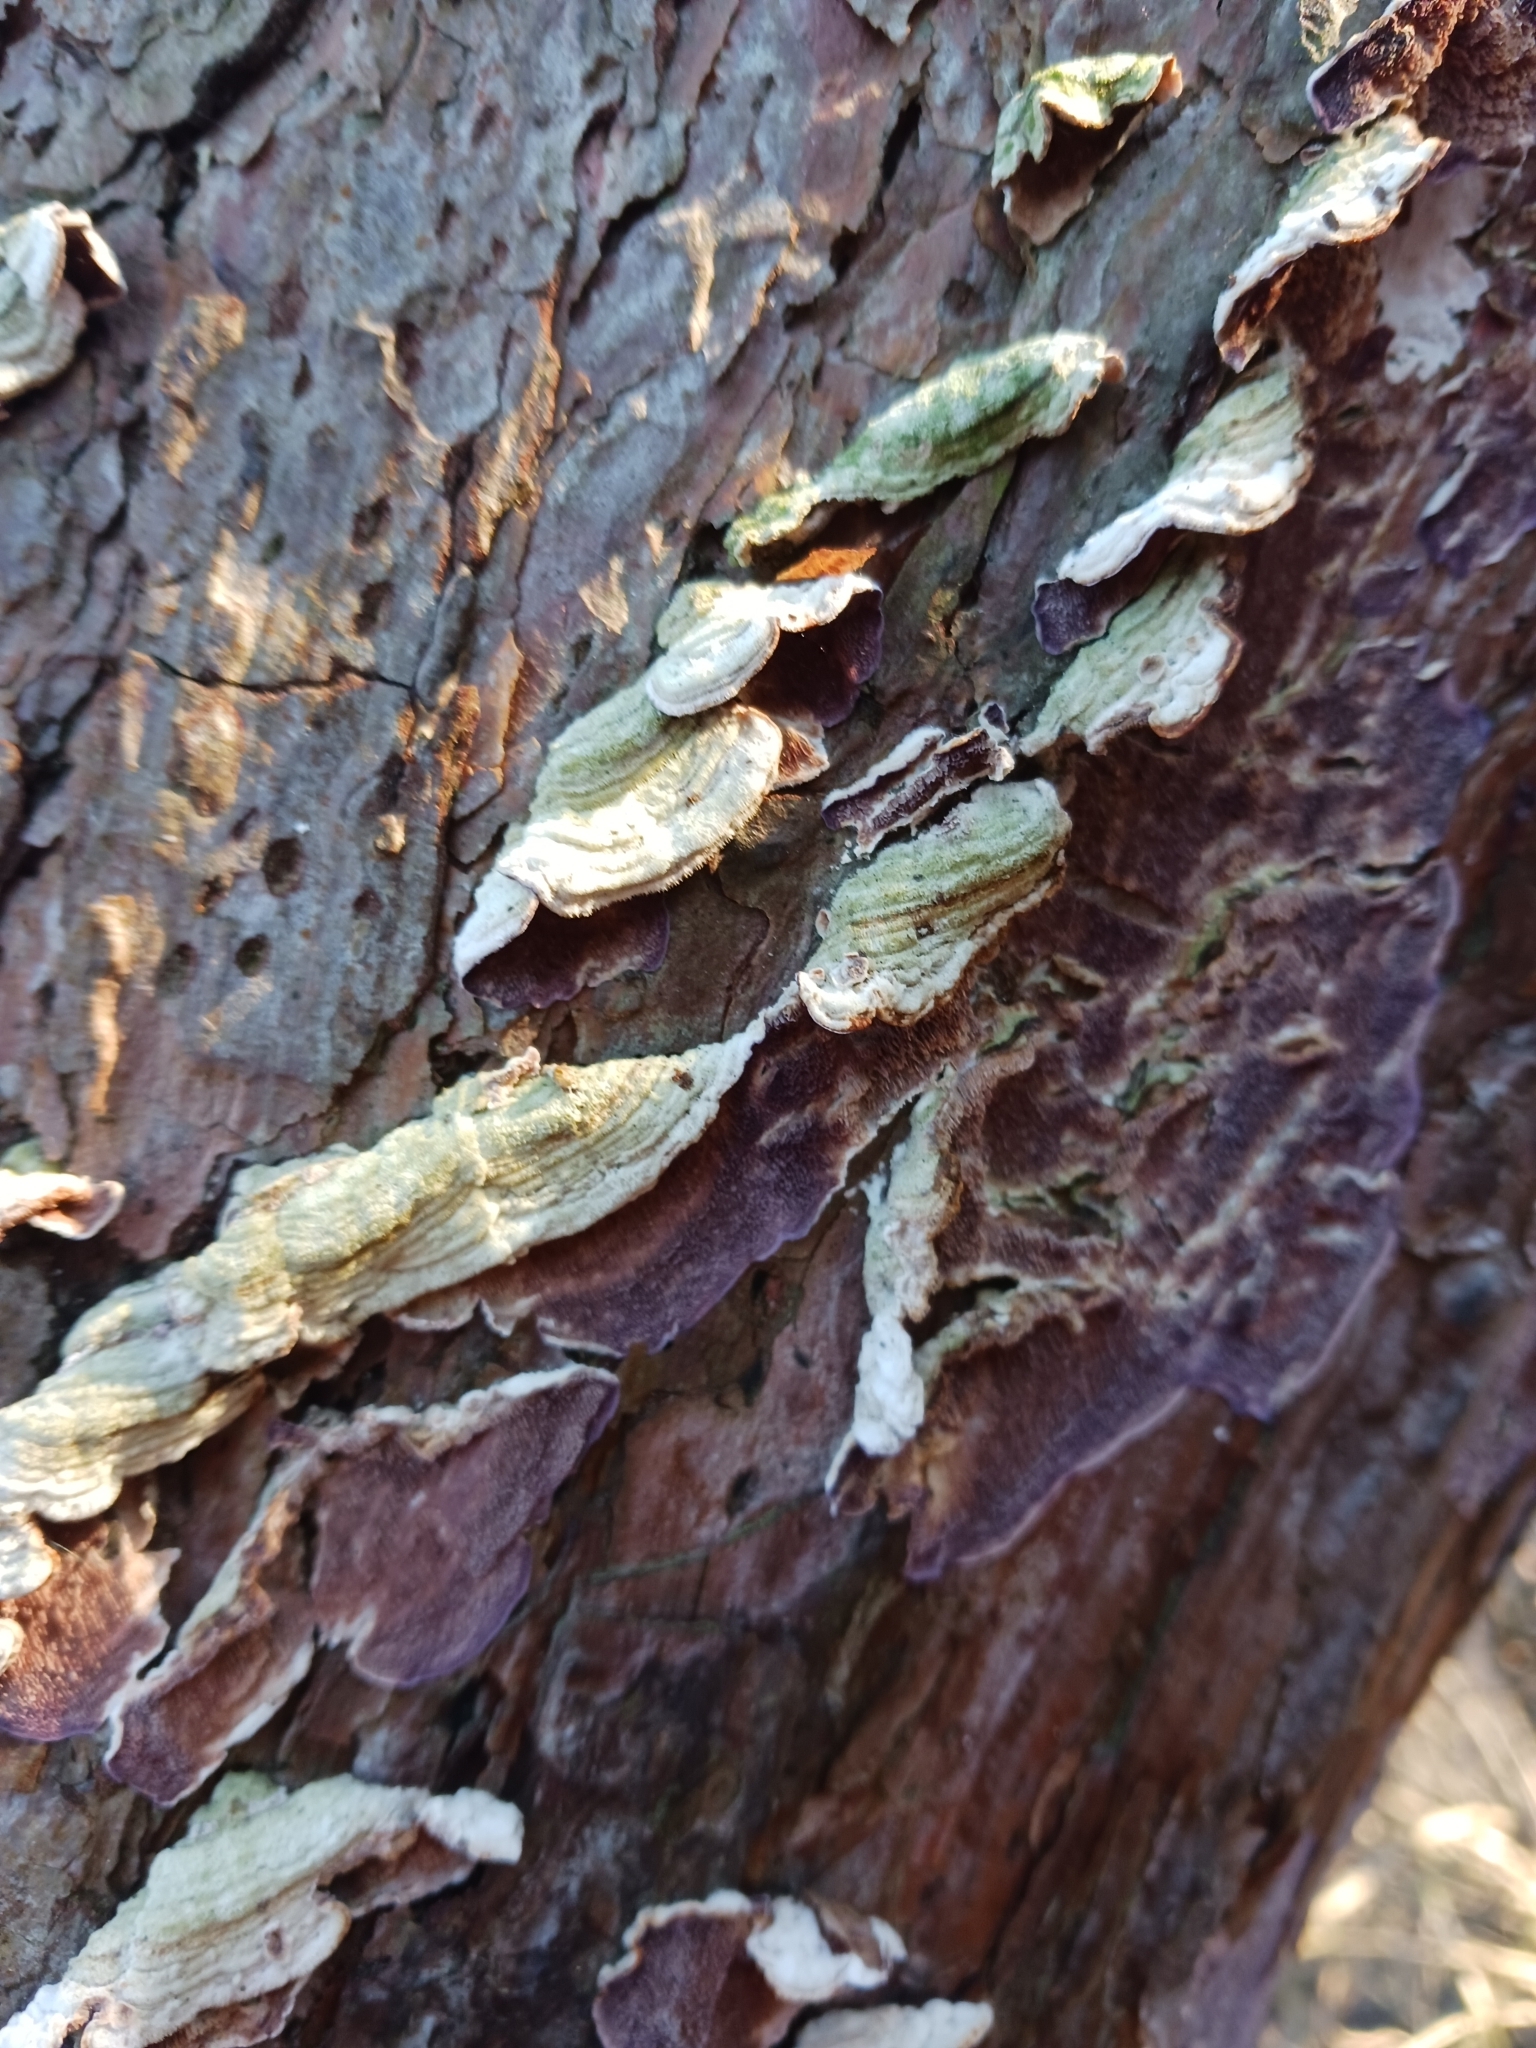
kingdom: Fungi
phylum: Basidiomycota
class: Agaricomycetes
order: Hymenochaetales
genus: Trichaptum
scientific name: Trichaptum abietinum
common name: Purplepore bracket
